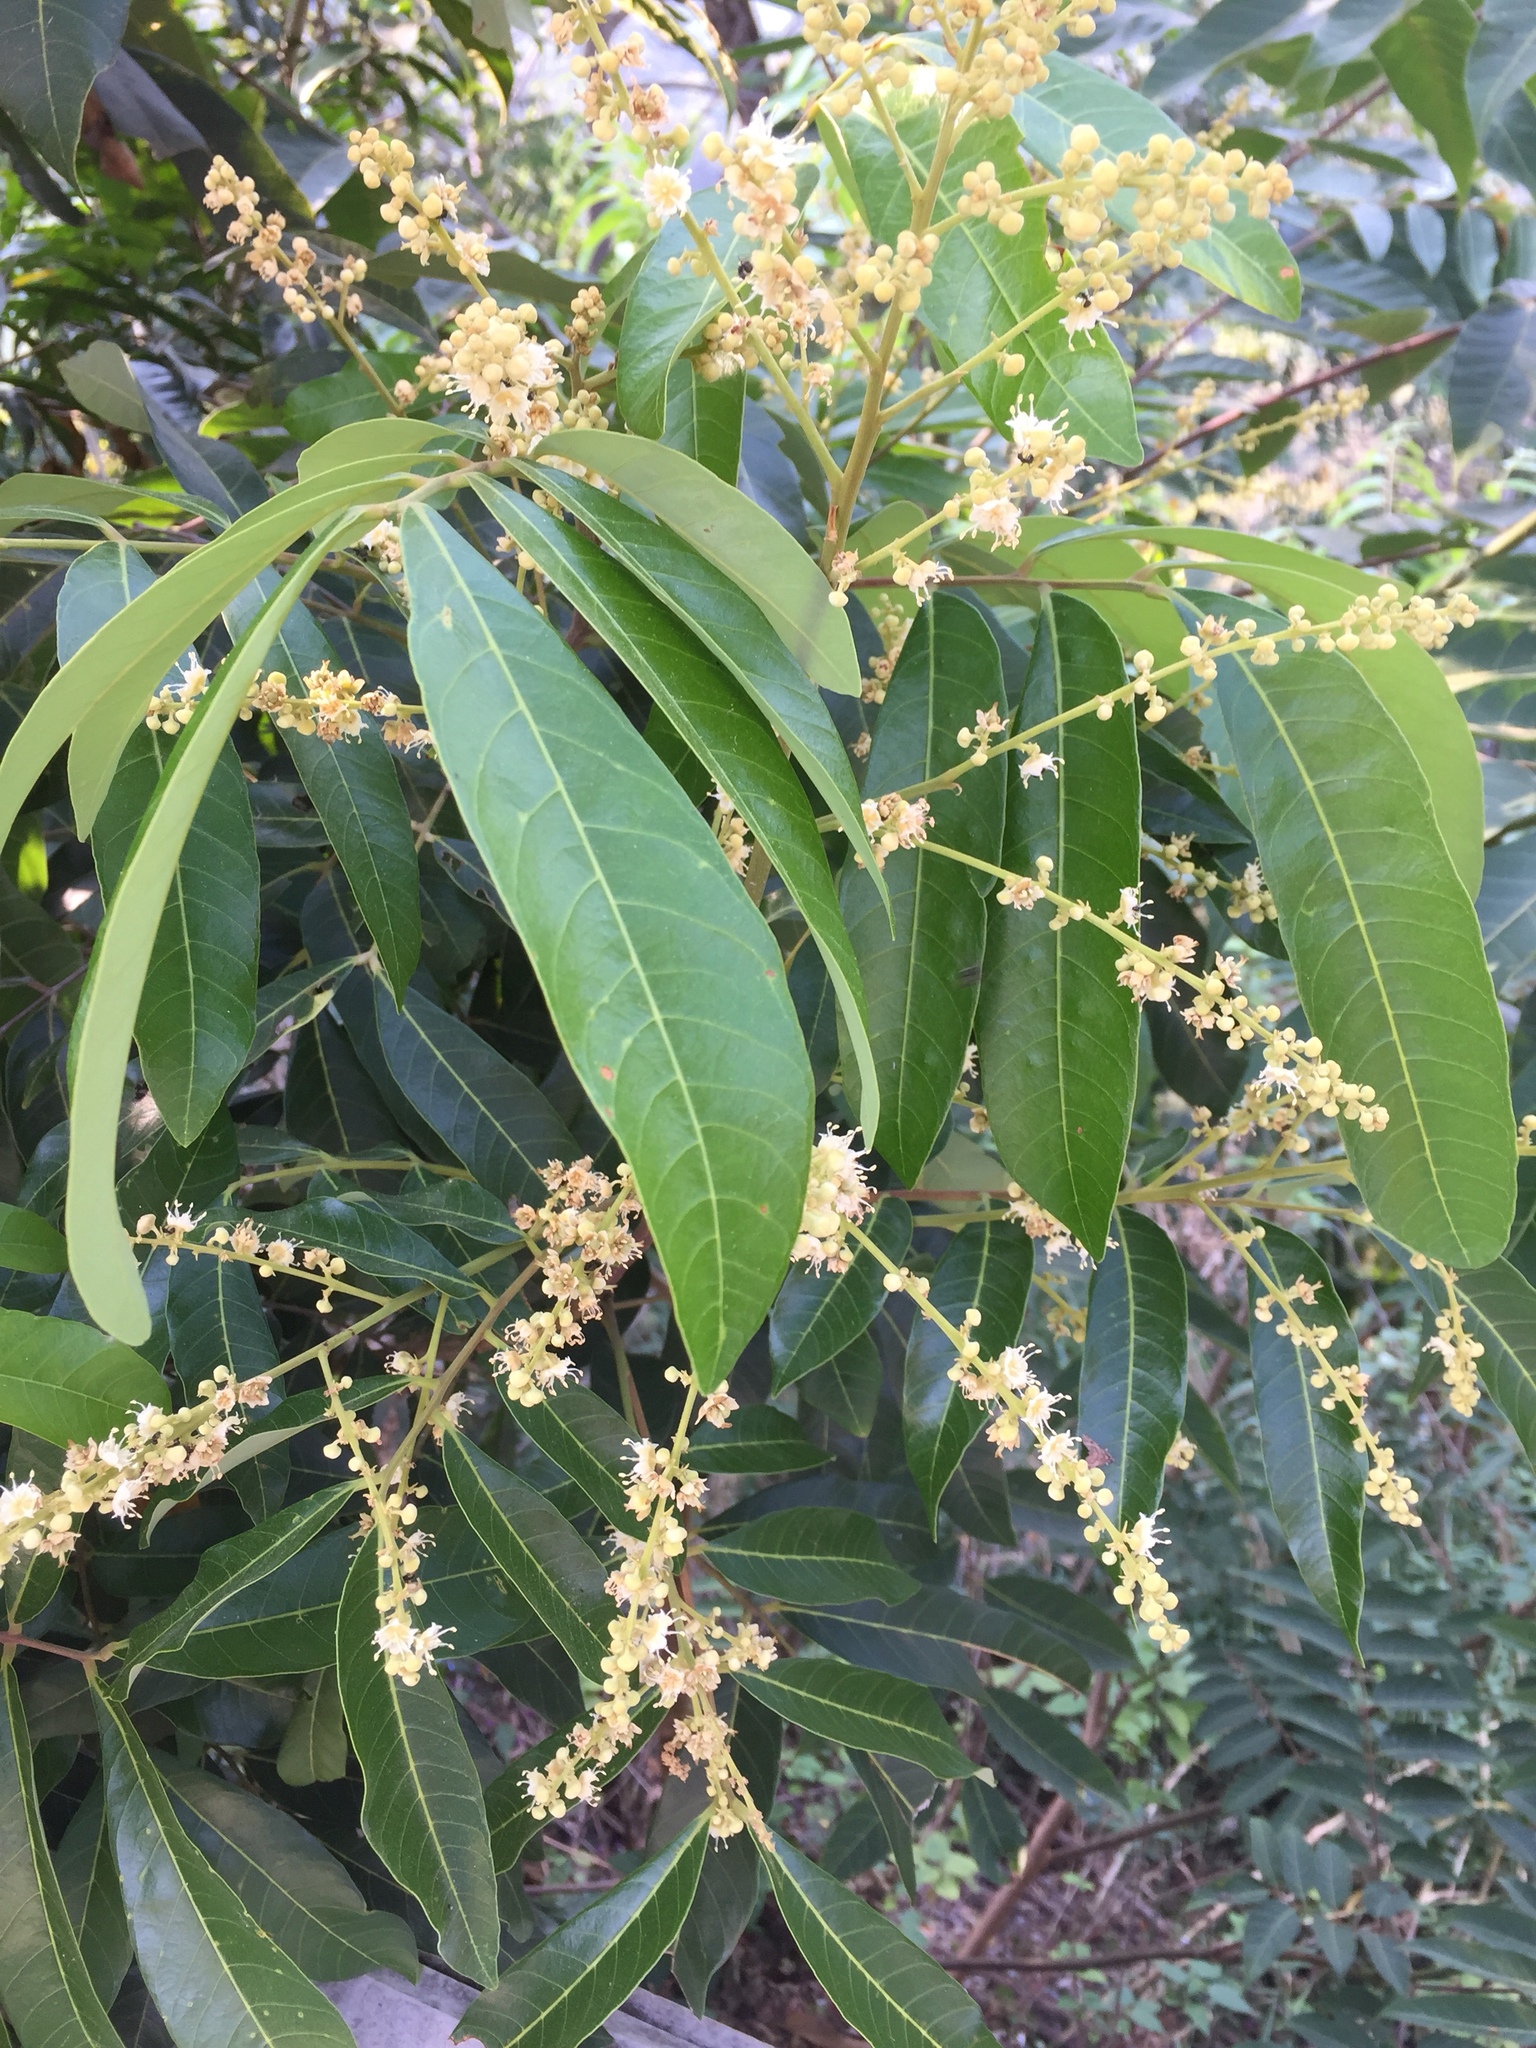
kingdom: Plantae
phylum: Tracheophyta
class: Magnoliopsida
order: Sapindales
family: Sapindaceae
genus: Dimocarpus
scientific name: Dimocarpus longan
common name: Longan
